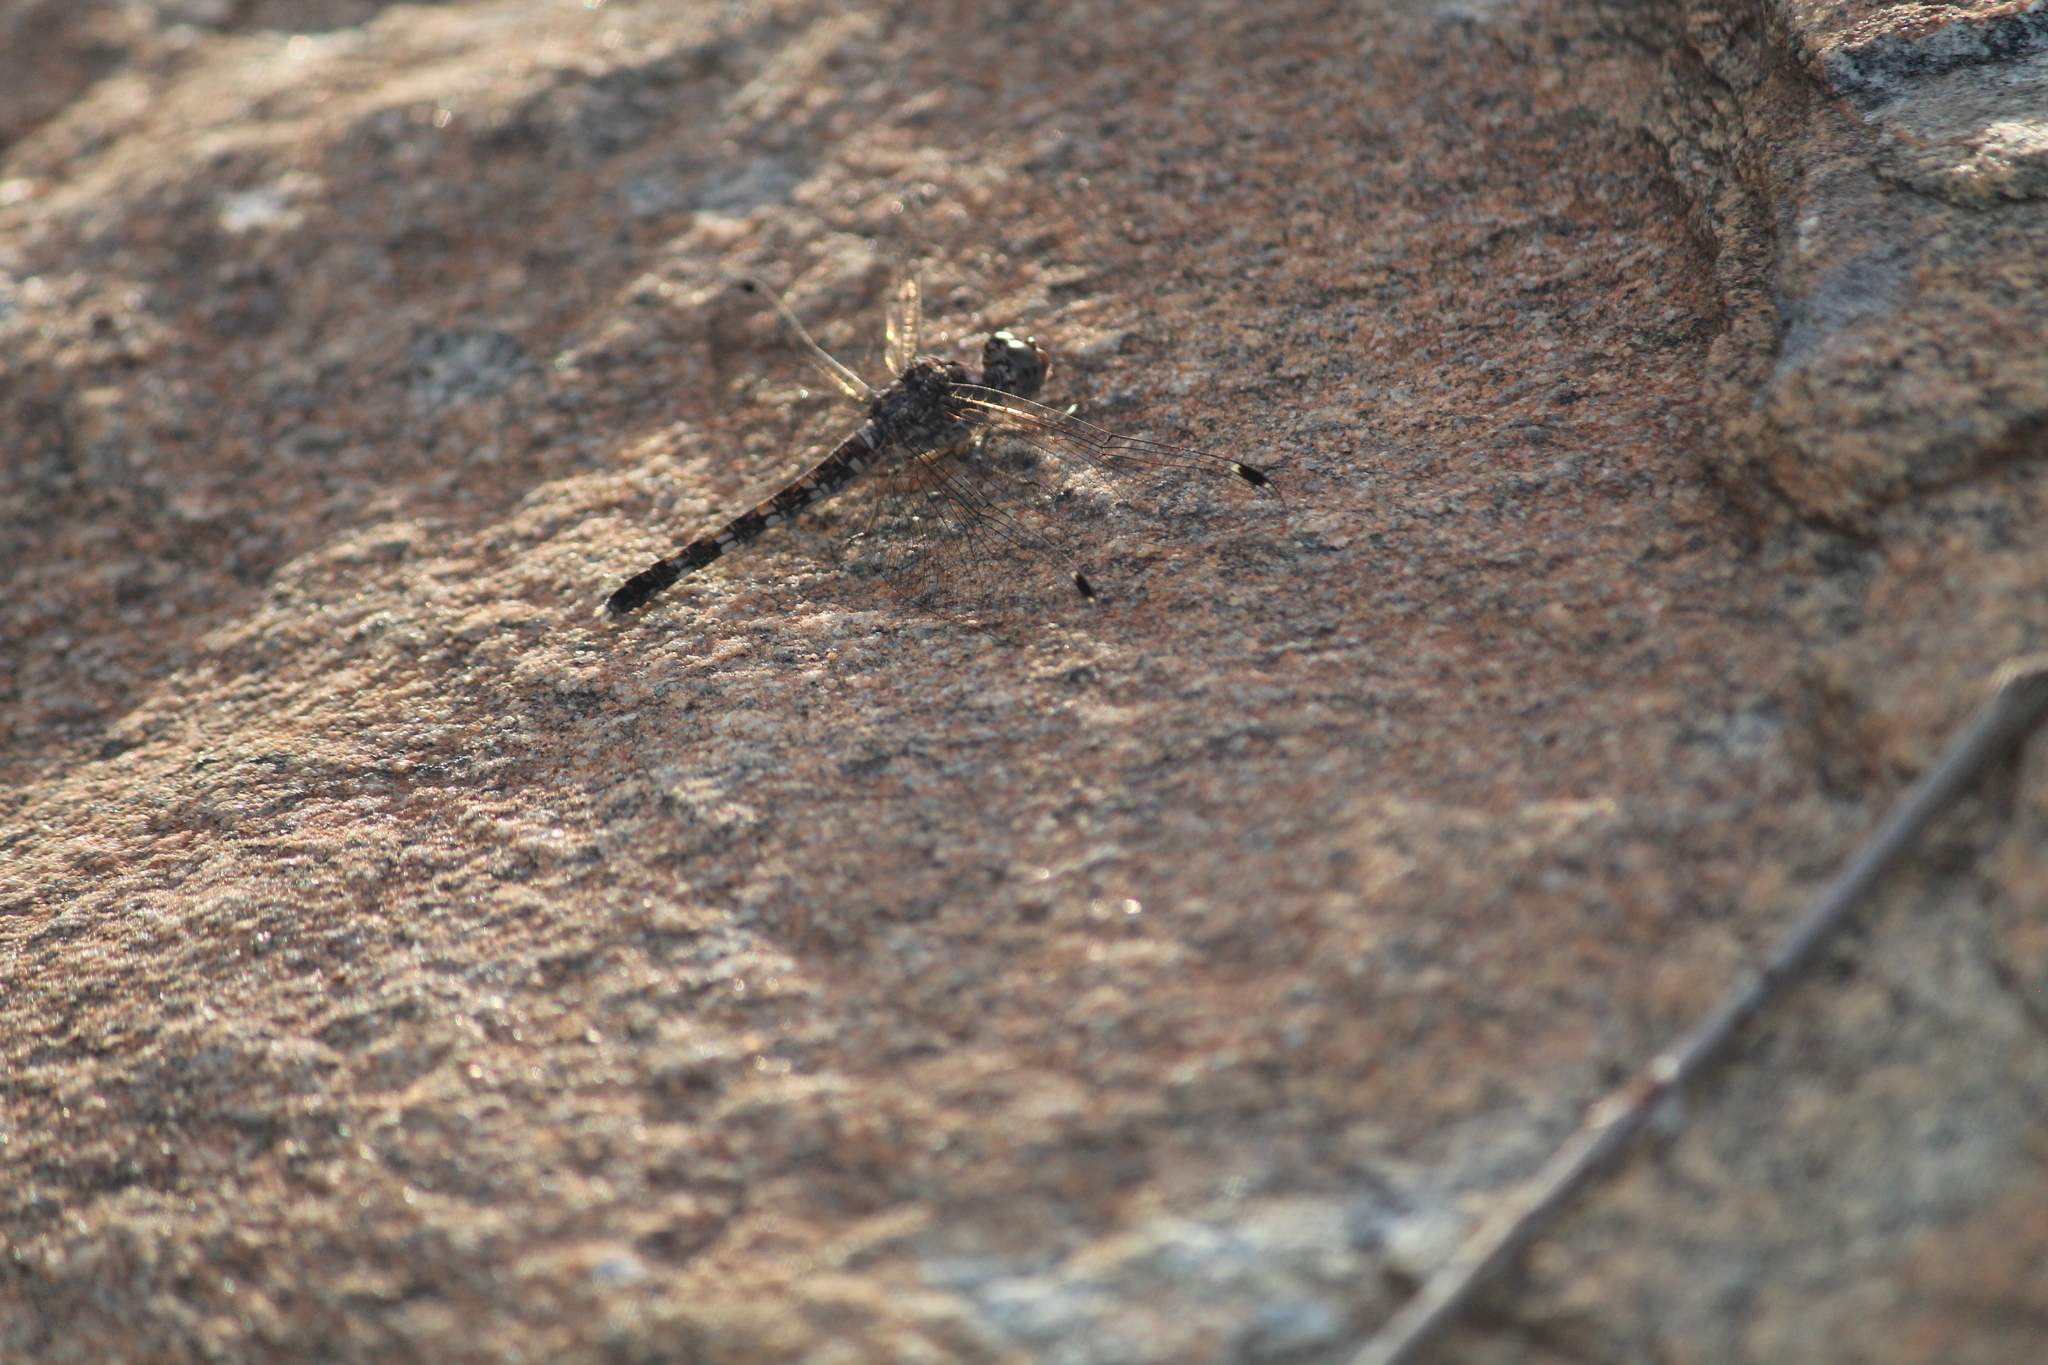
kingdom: Animalia
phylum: Arthropoda
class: Insecta
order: Odonata
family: Libellulidae
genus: Bradinopyga
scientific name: Bradinopyga geminata
